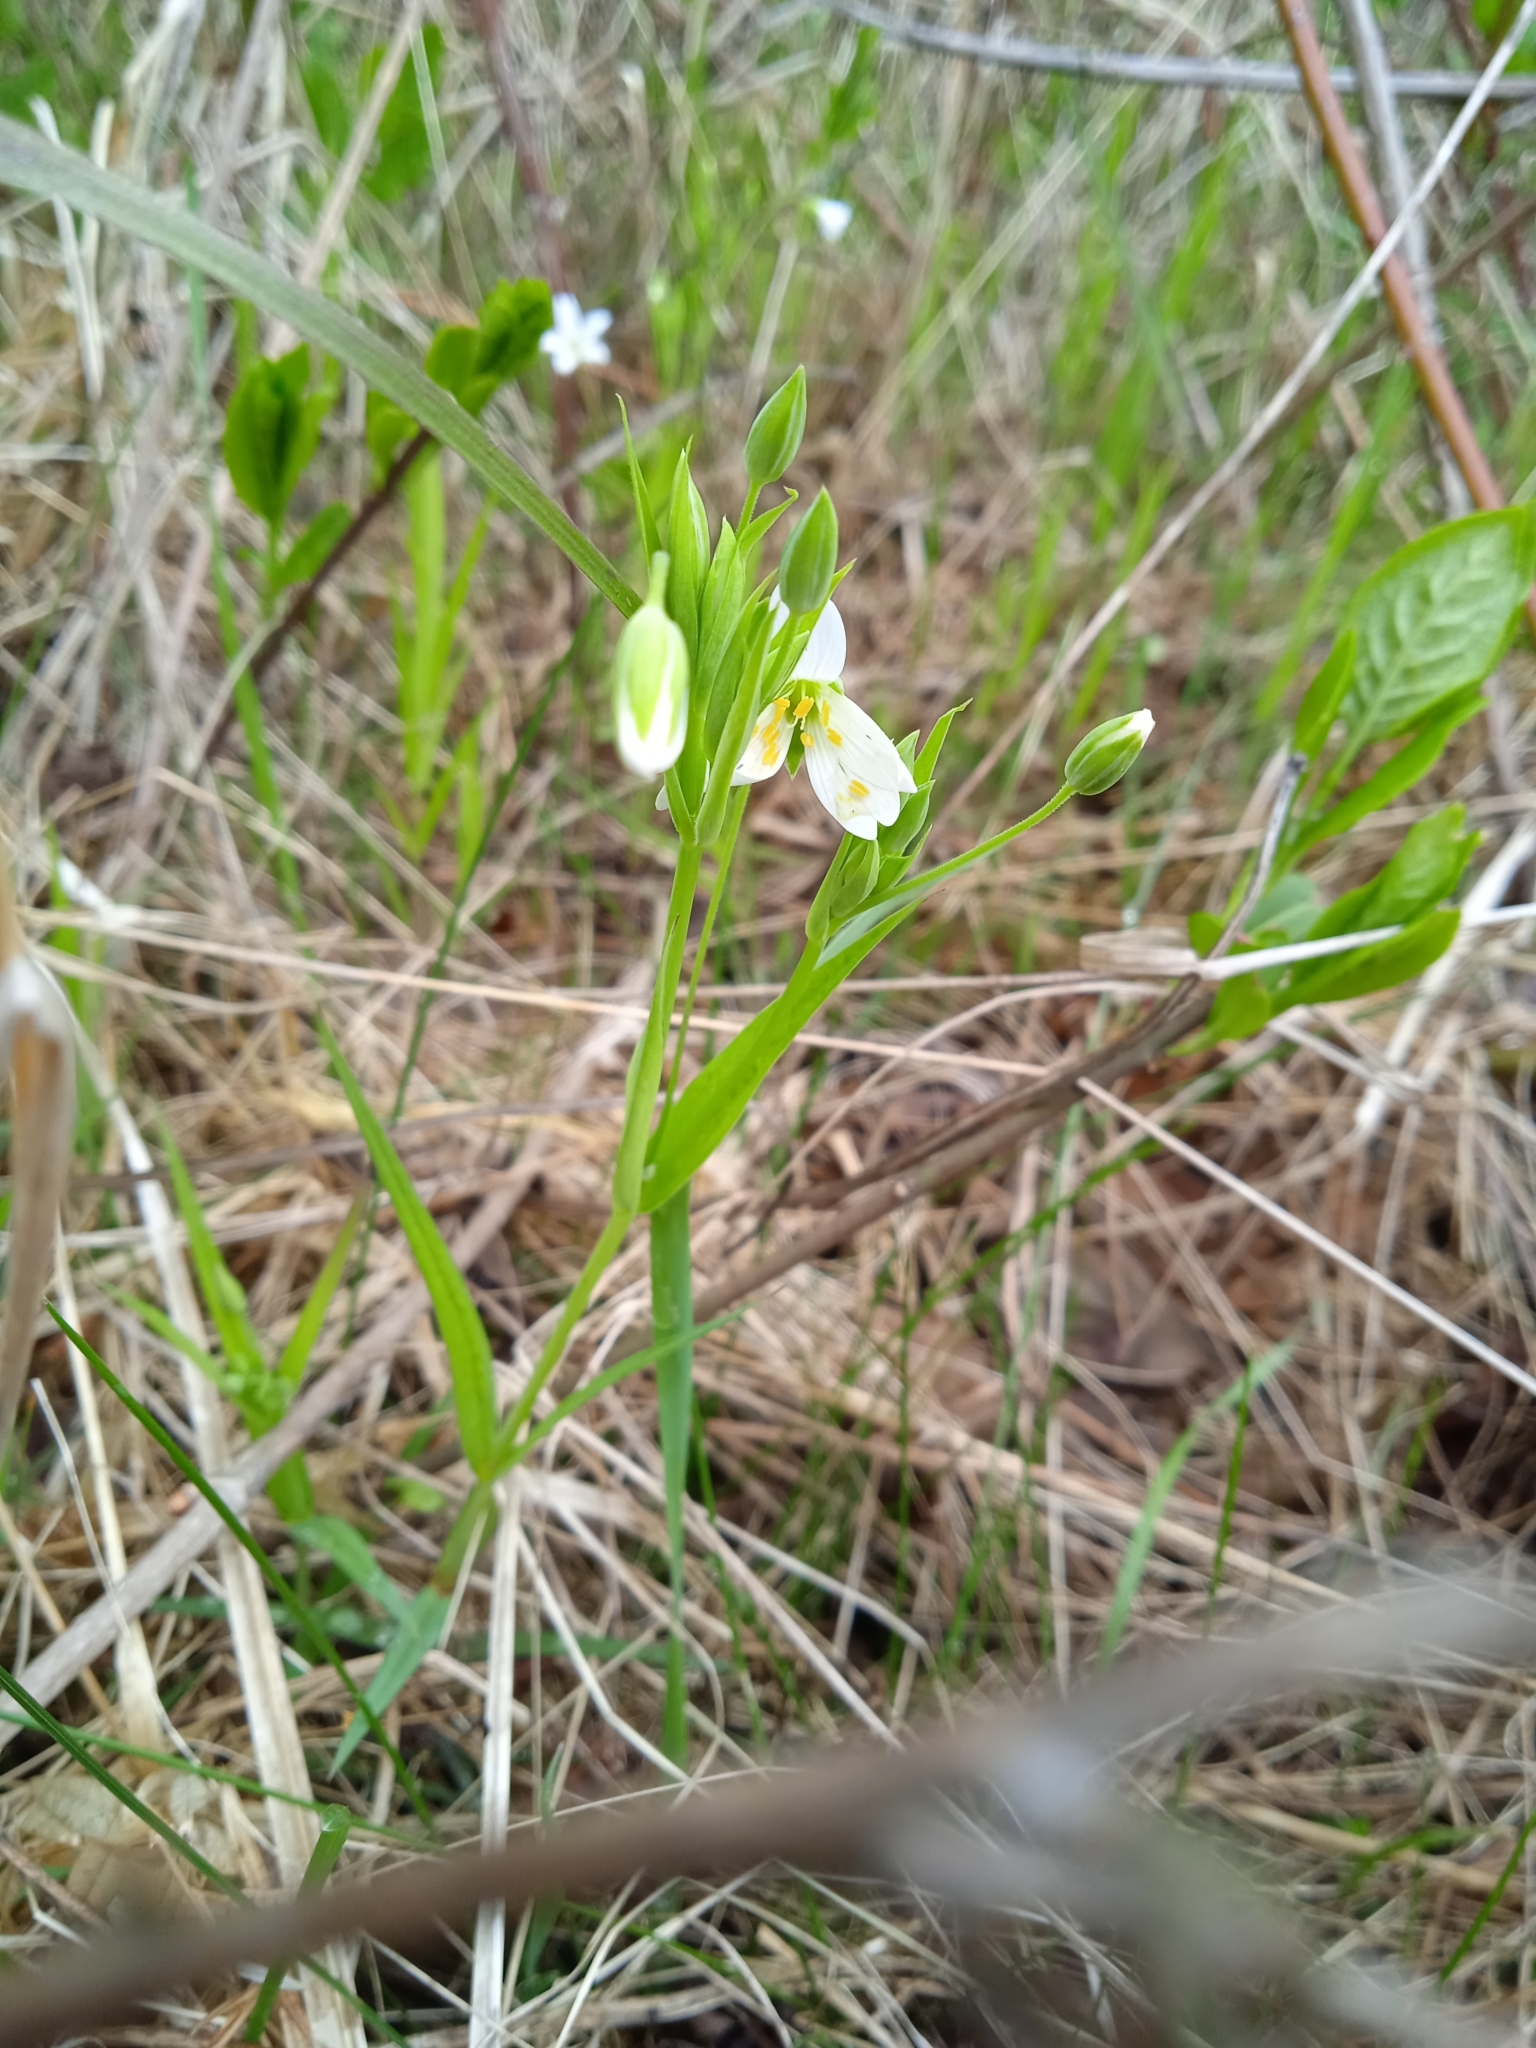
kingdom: Plantae
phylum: Tracheophyta
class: Magnoliopsida
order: Caryophyllales
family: Caryophyllaceae
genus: Rabelera
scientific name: Rabelera holostea
